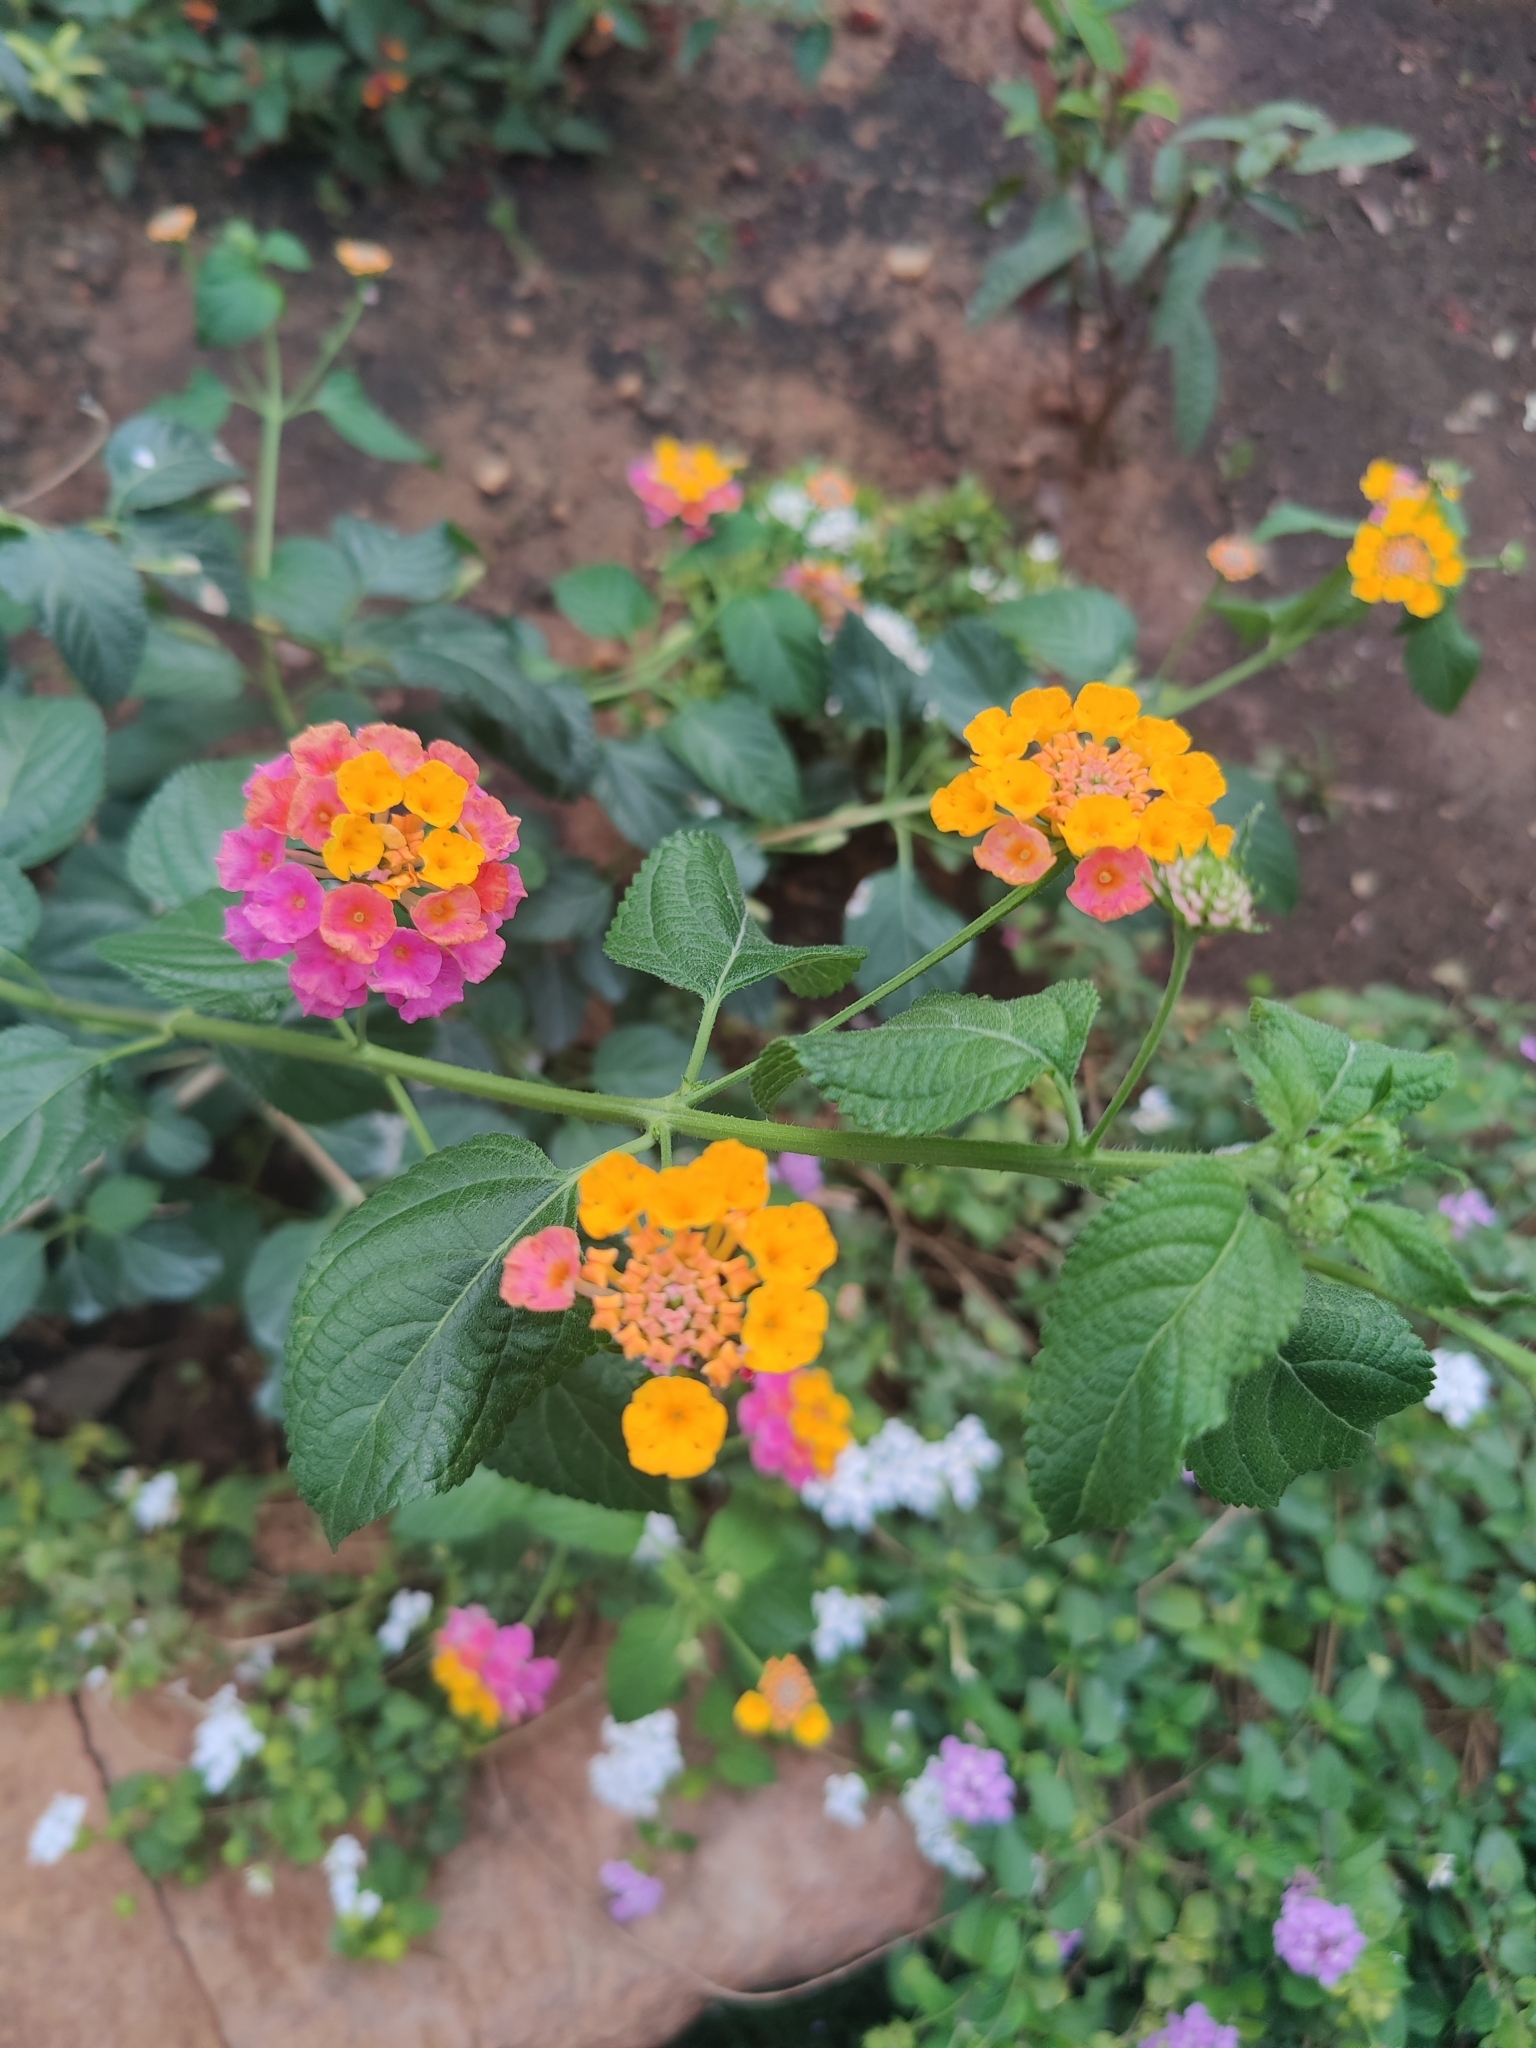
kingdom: Plantae
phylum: Tracheophyta
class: Magnoliopsida
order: Lamiales
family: Verbenaceae
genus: Lantana
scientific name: Lantana camara
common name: Lantana
